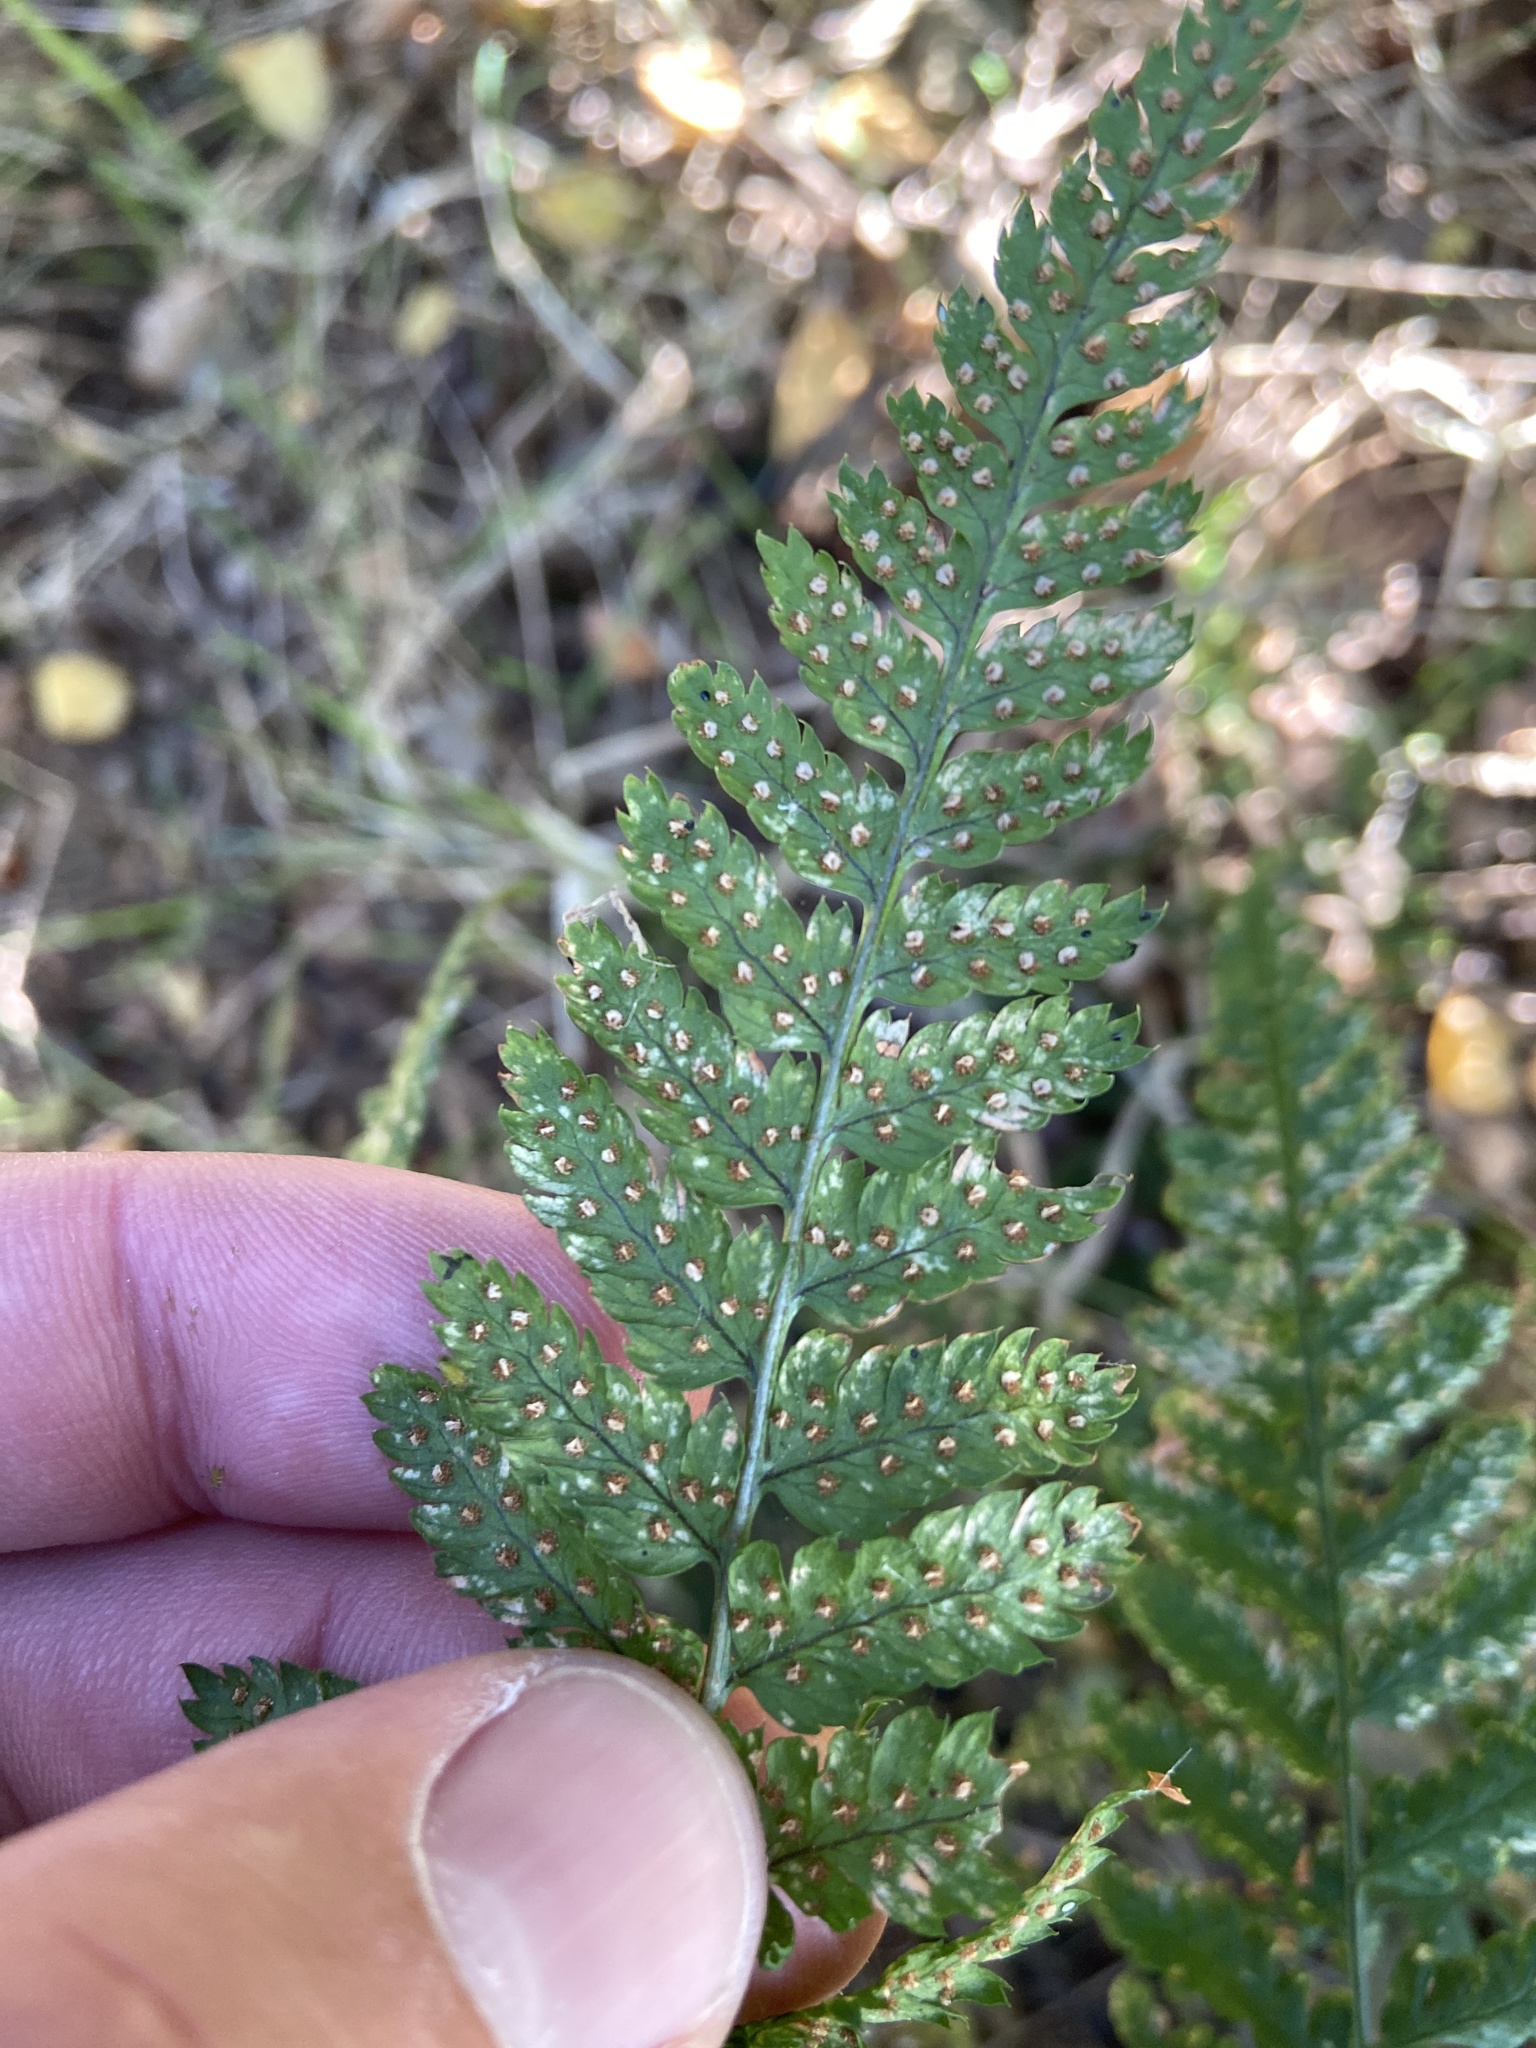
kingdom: Plantae
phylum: Tracheophyta
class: Polypodiopsida
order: Polypodiales
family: Dryopteridaceae
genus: Dryopteris
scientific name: Dryopteris dilatata
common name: Broad buckler-fern
